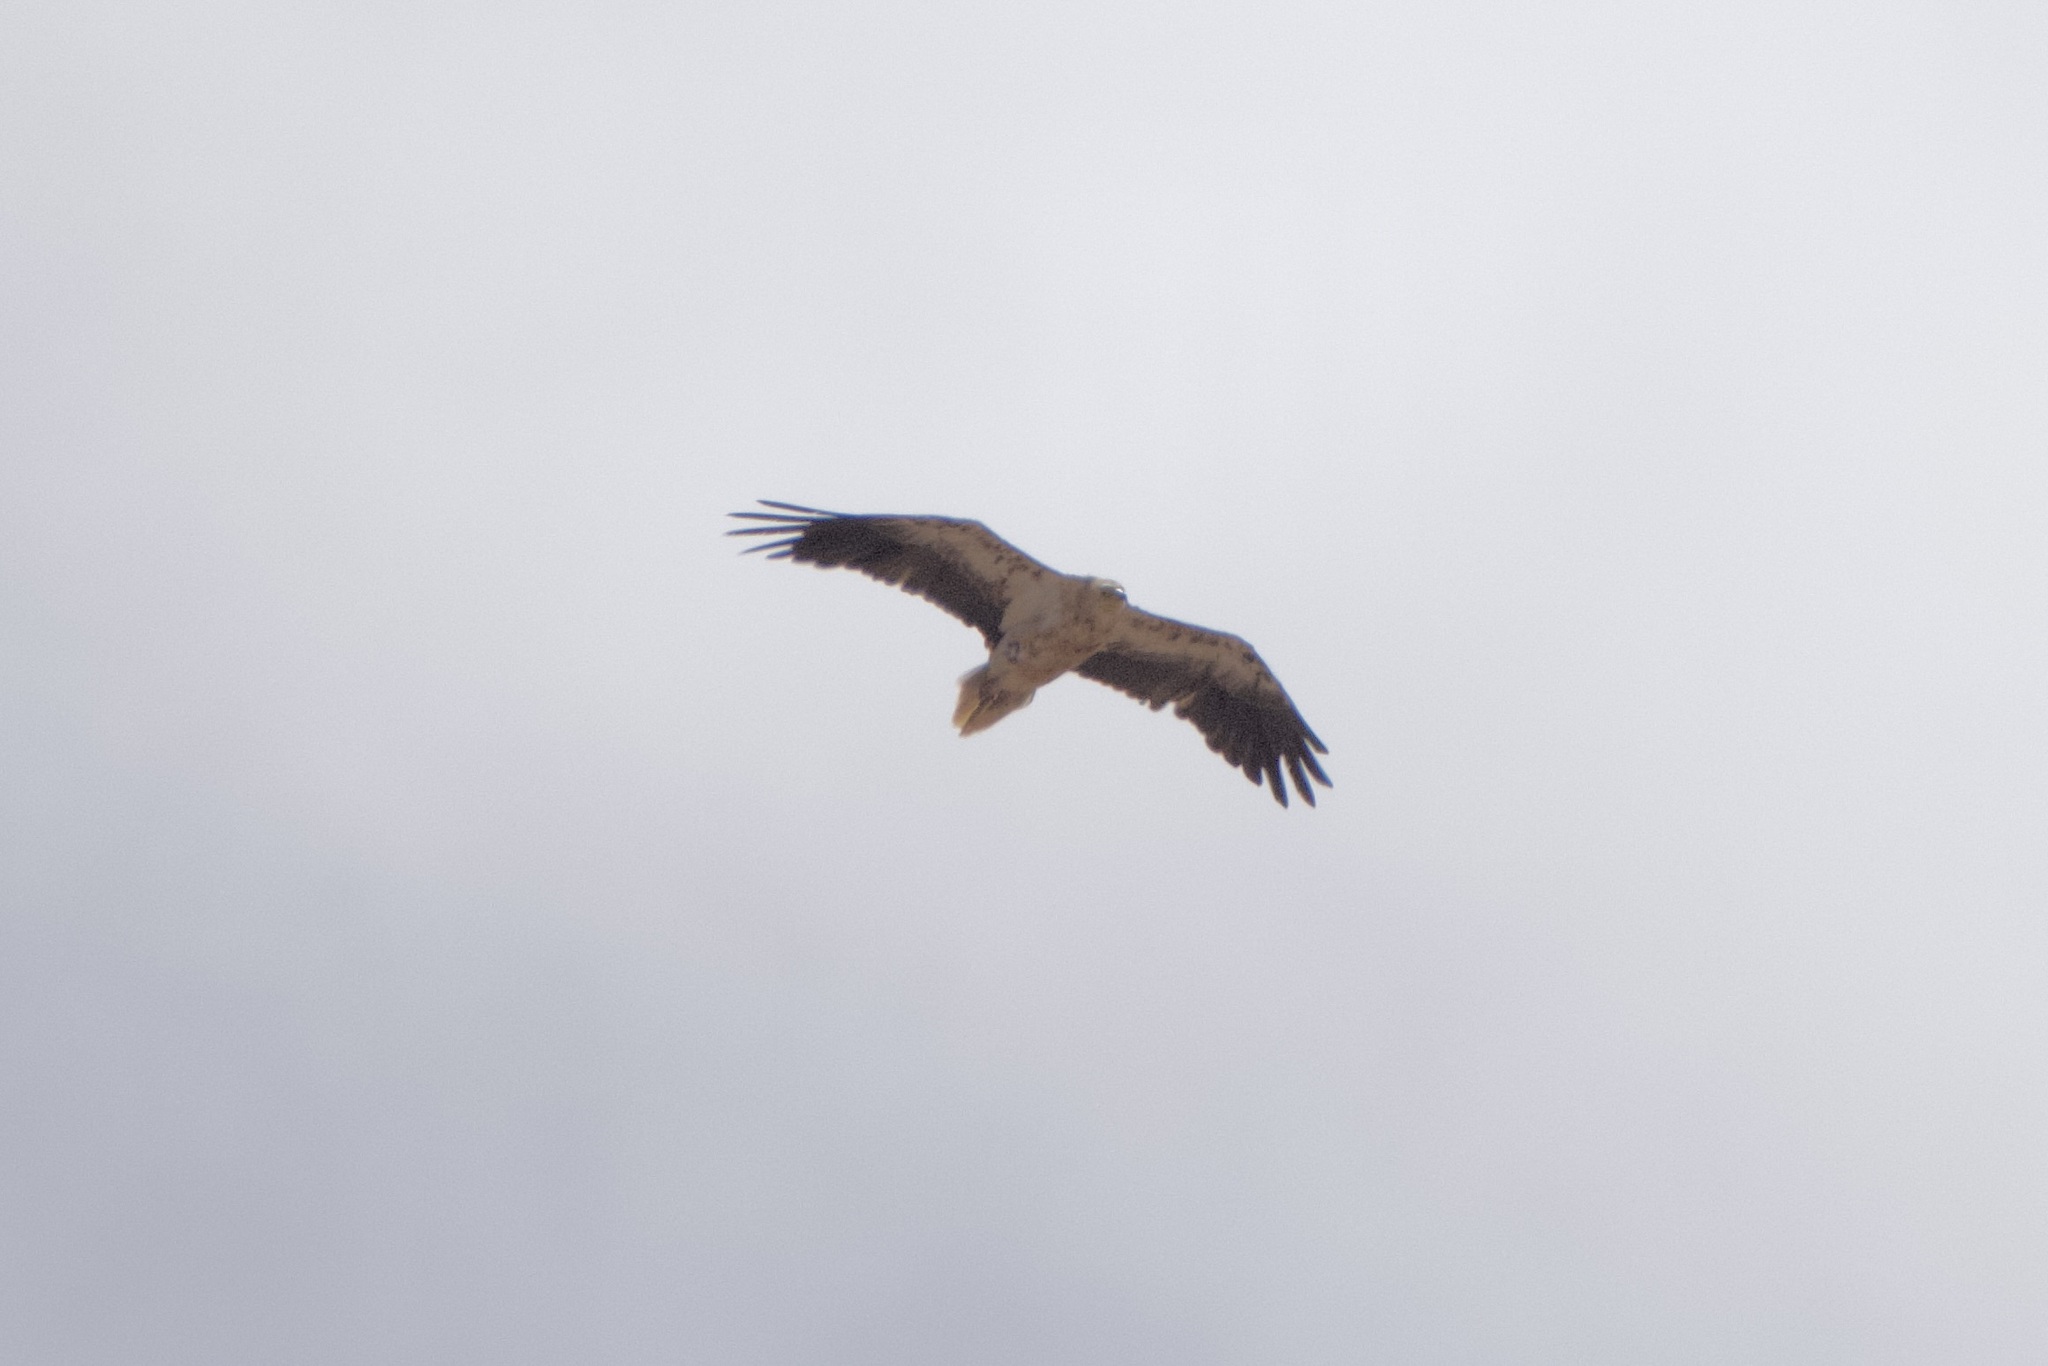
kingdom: Animalia
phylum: Chordata
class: Aves
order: Accipitriformes
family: Accipitridae
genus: Neophron
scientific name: Neophron percnopterus
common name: Egyptian vulture
